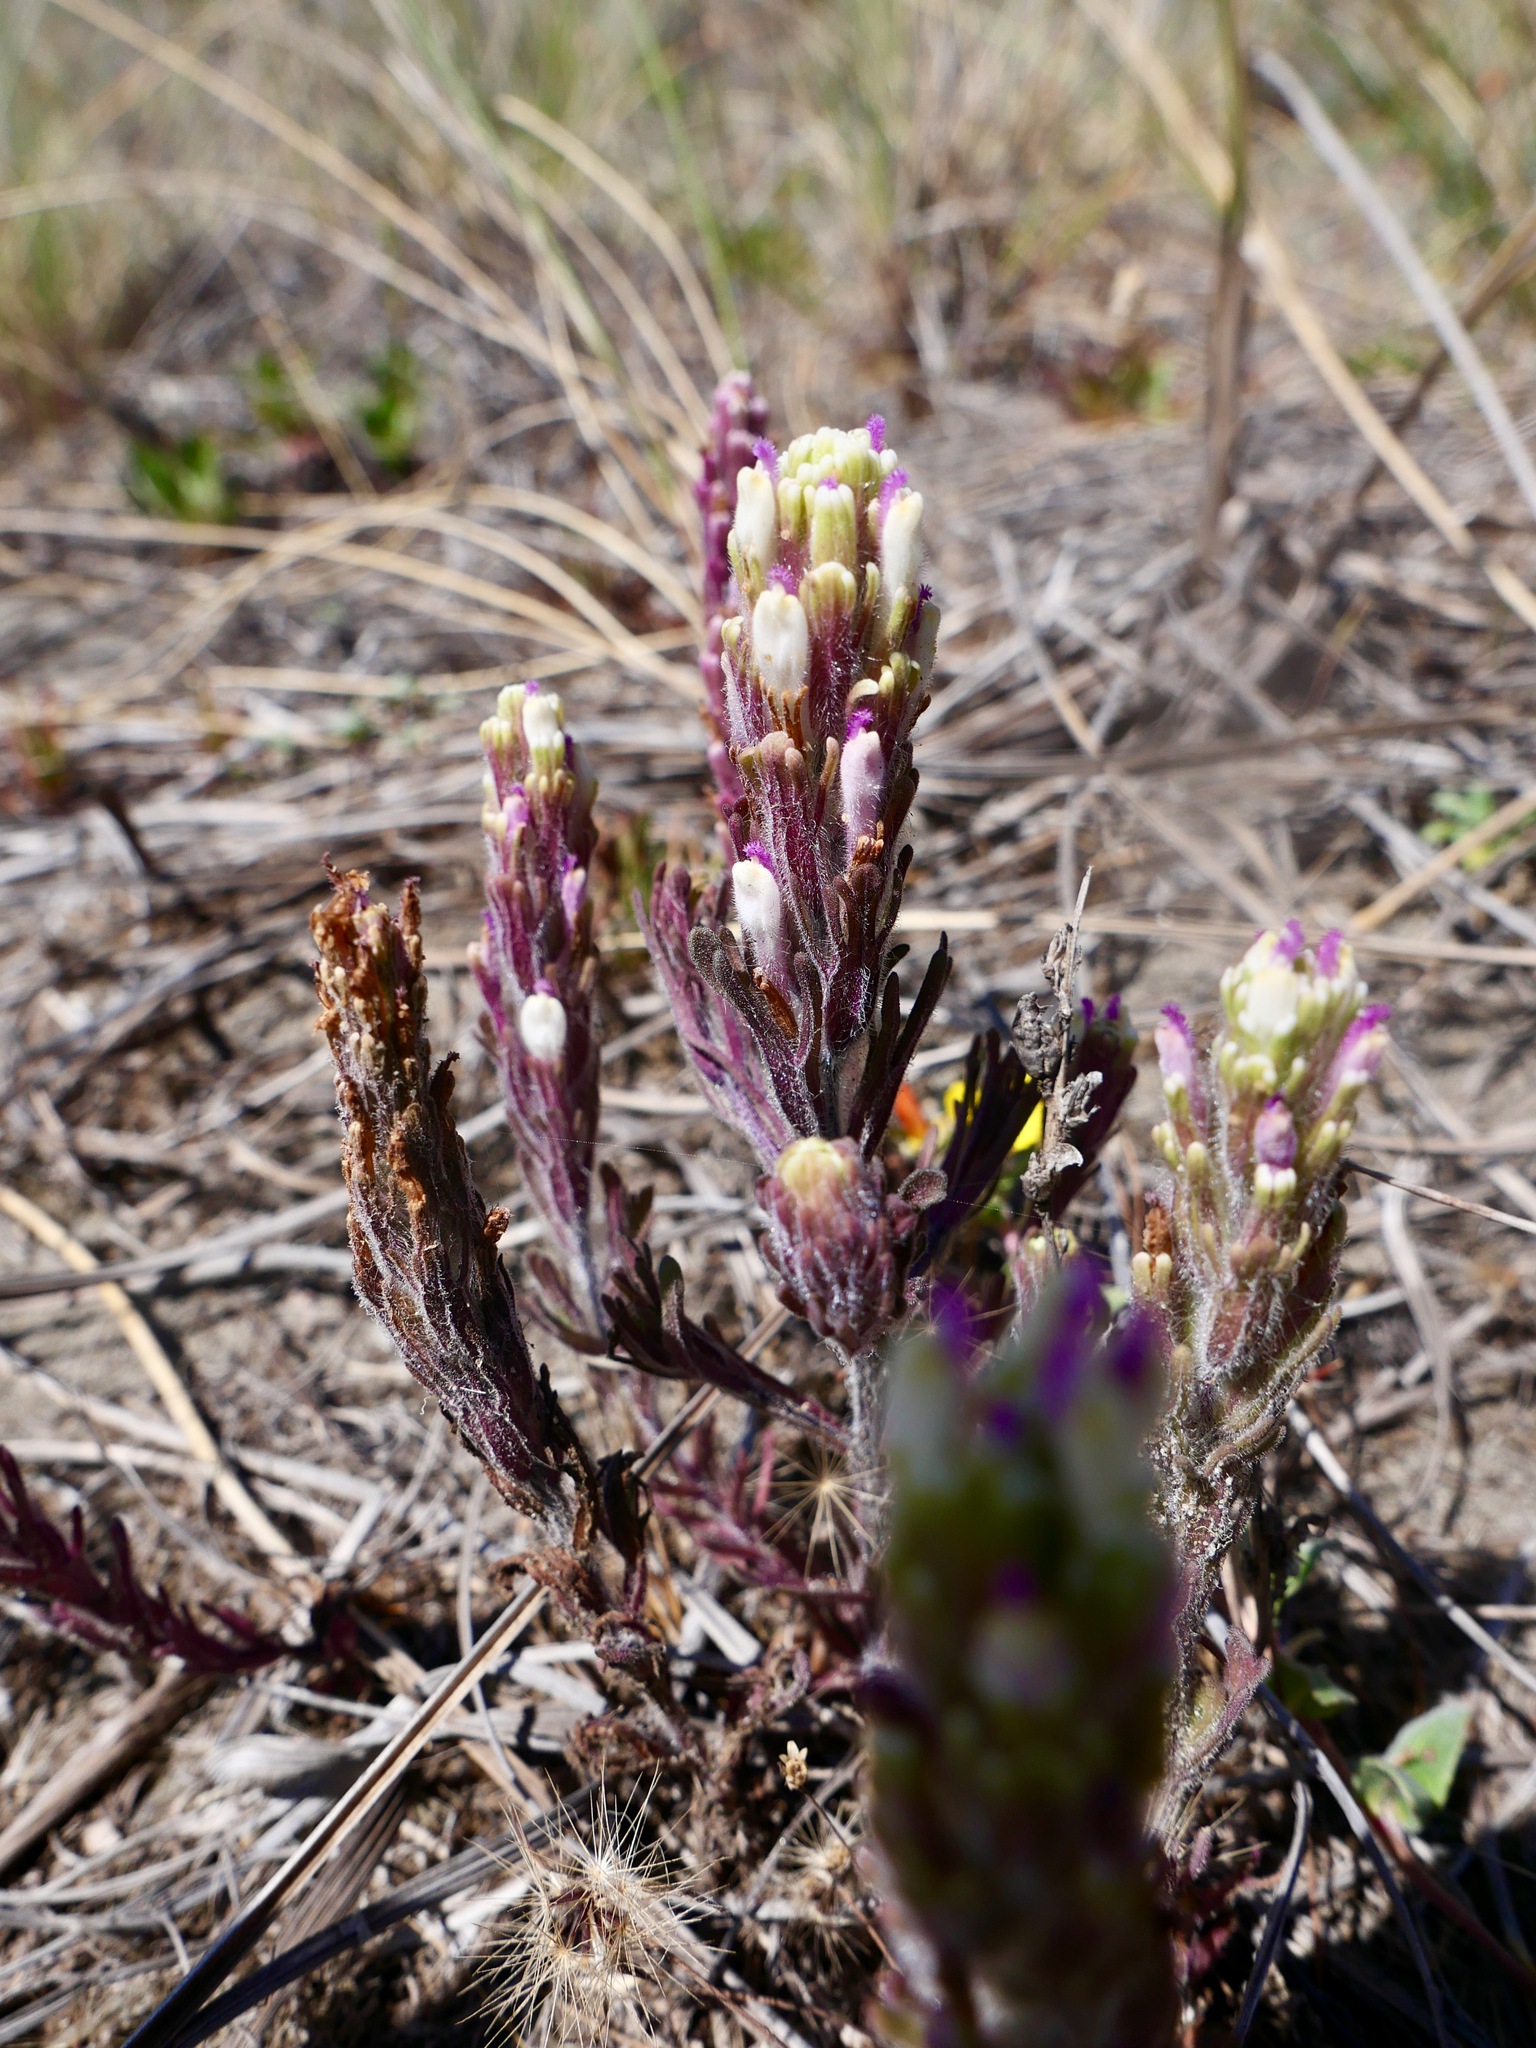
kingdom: Plantae
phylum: Tracheophyta
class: Magnoliopsida
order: Lamiales
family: Orobanchaceae
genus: Castilleja
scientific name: Castilleja exserta
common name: Purple owl-clover
